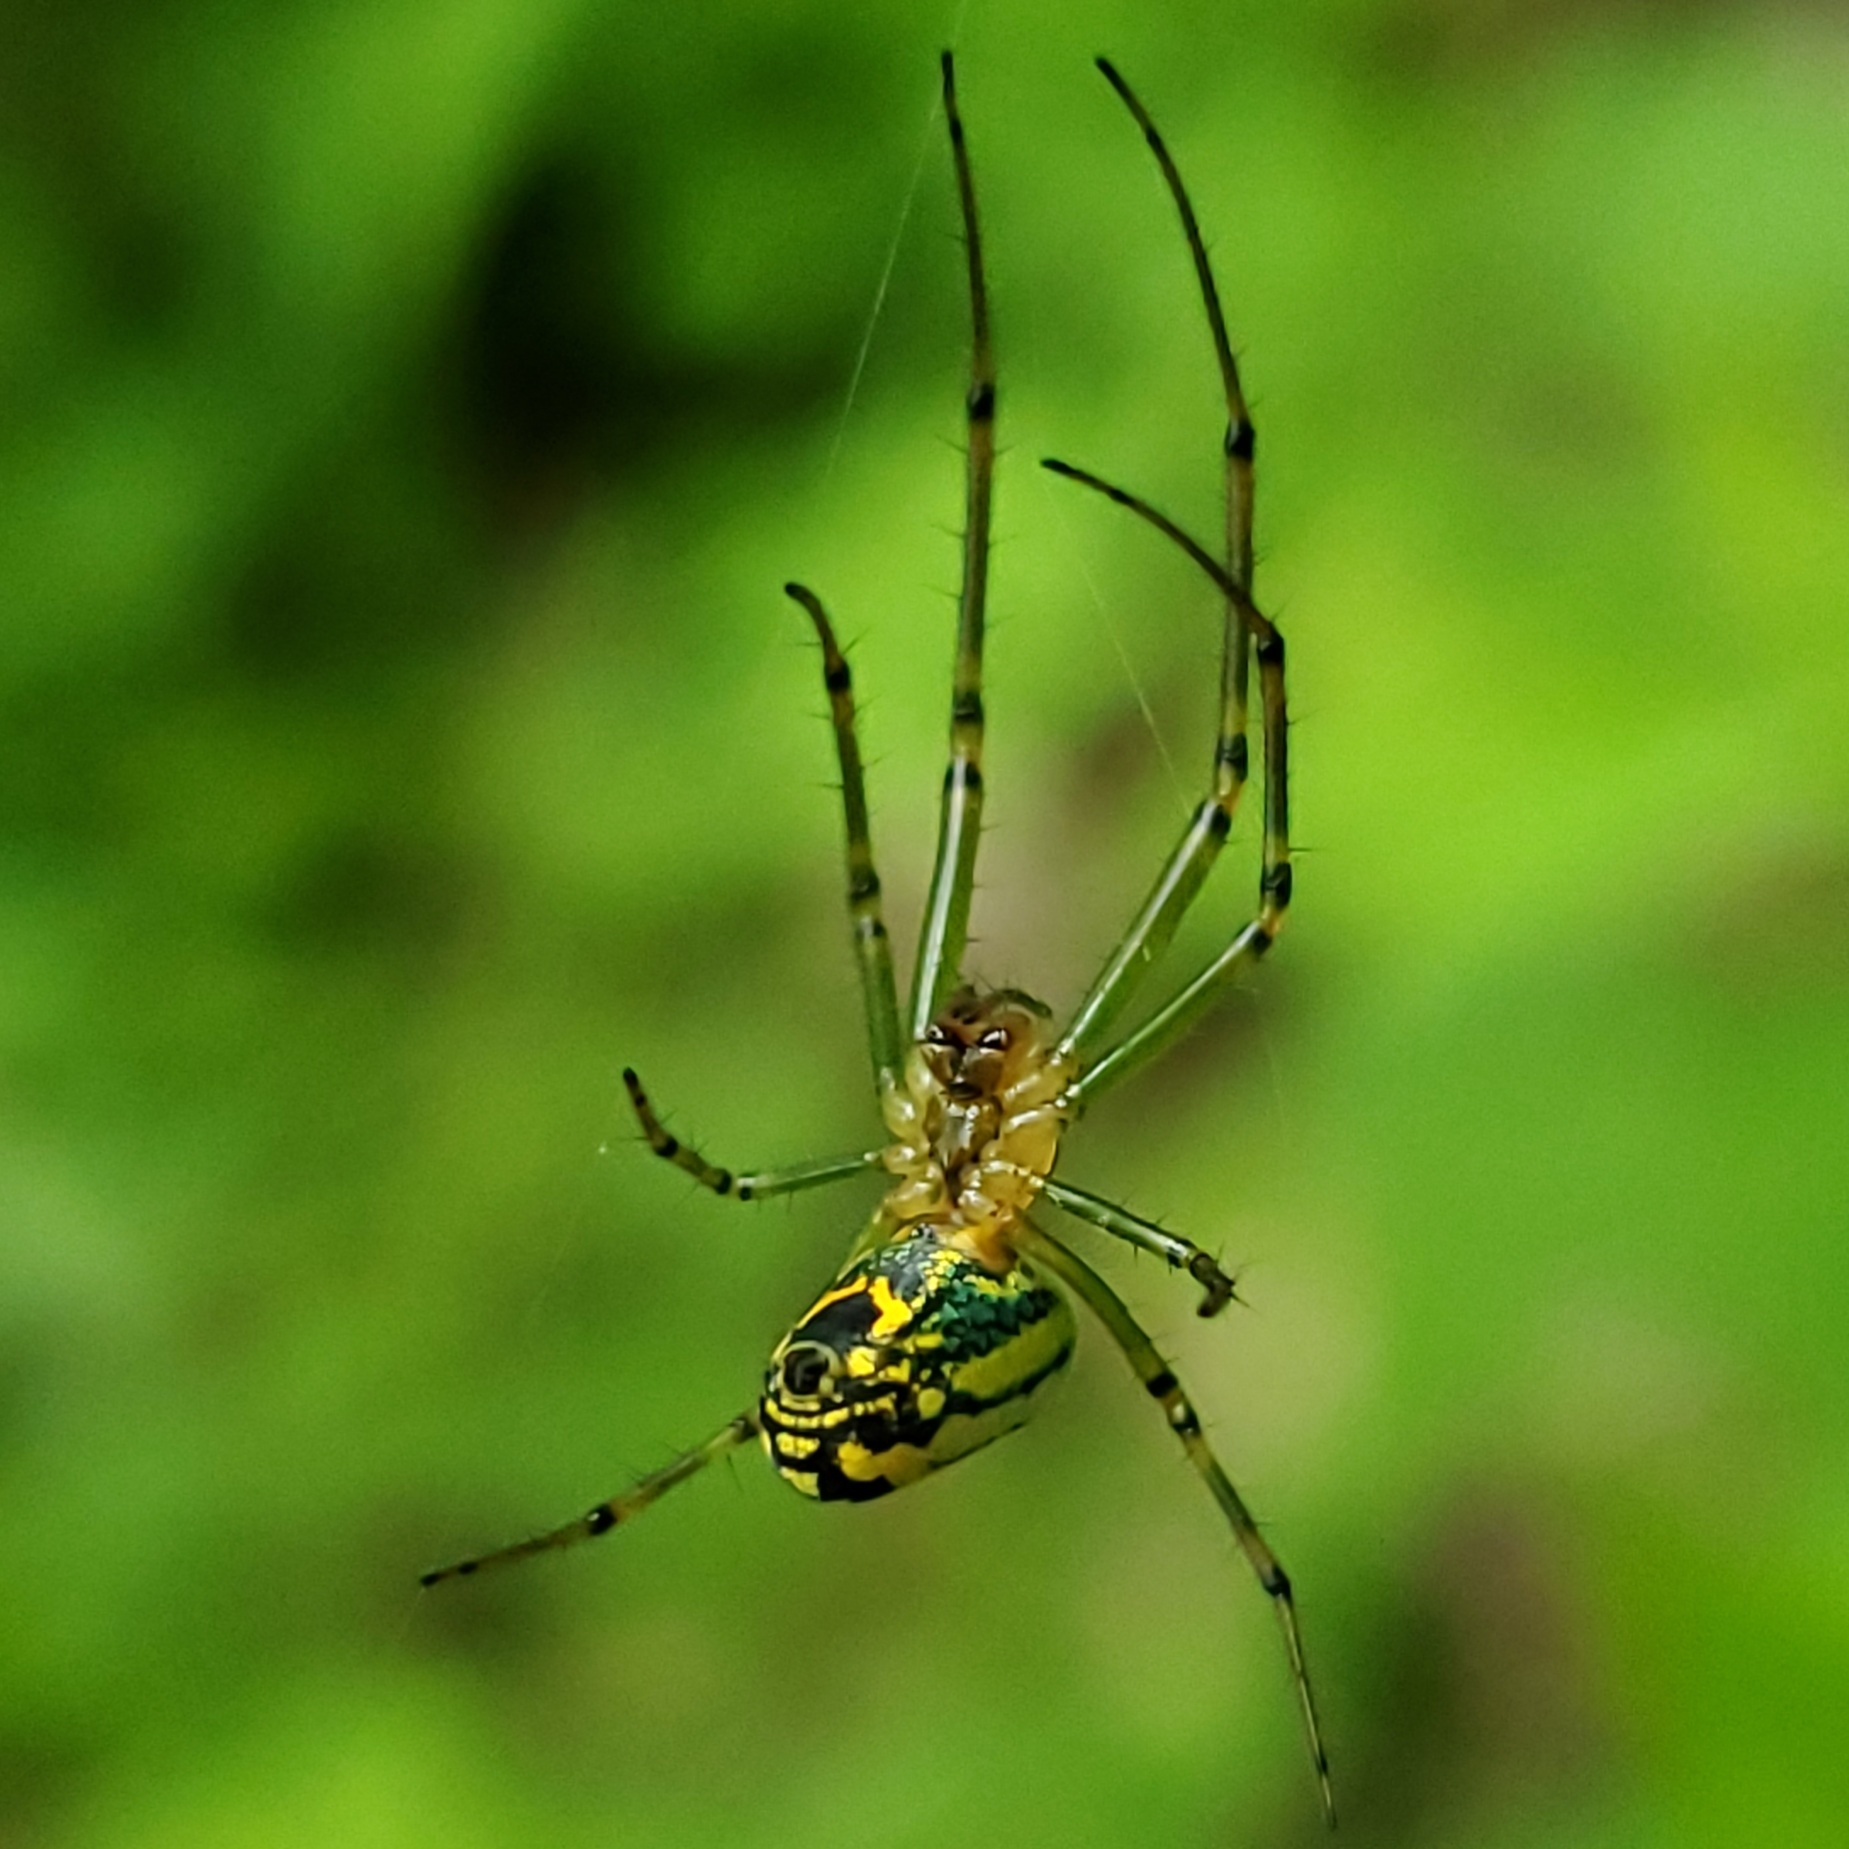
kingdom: Animalia
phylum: Arthropoda
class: Arachnida
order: Araneae
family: Tetragnathidae
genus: Leucauge
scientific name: Leucauge venusta
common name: Longjawed orb weavers
